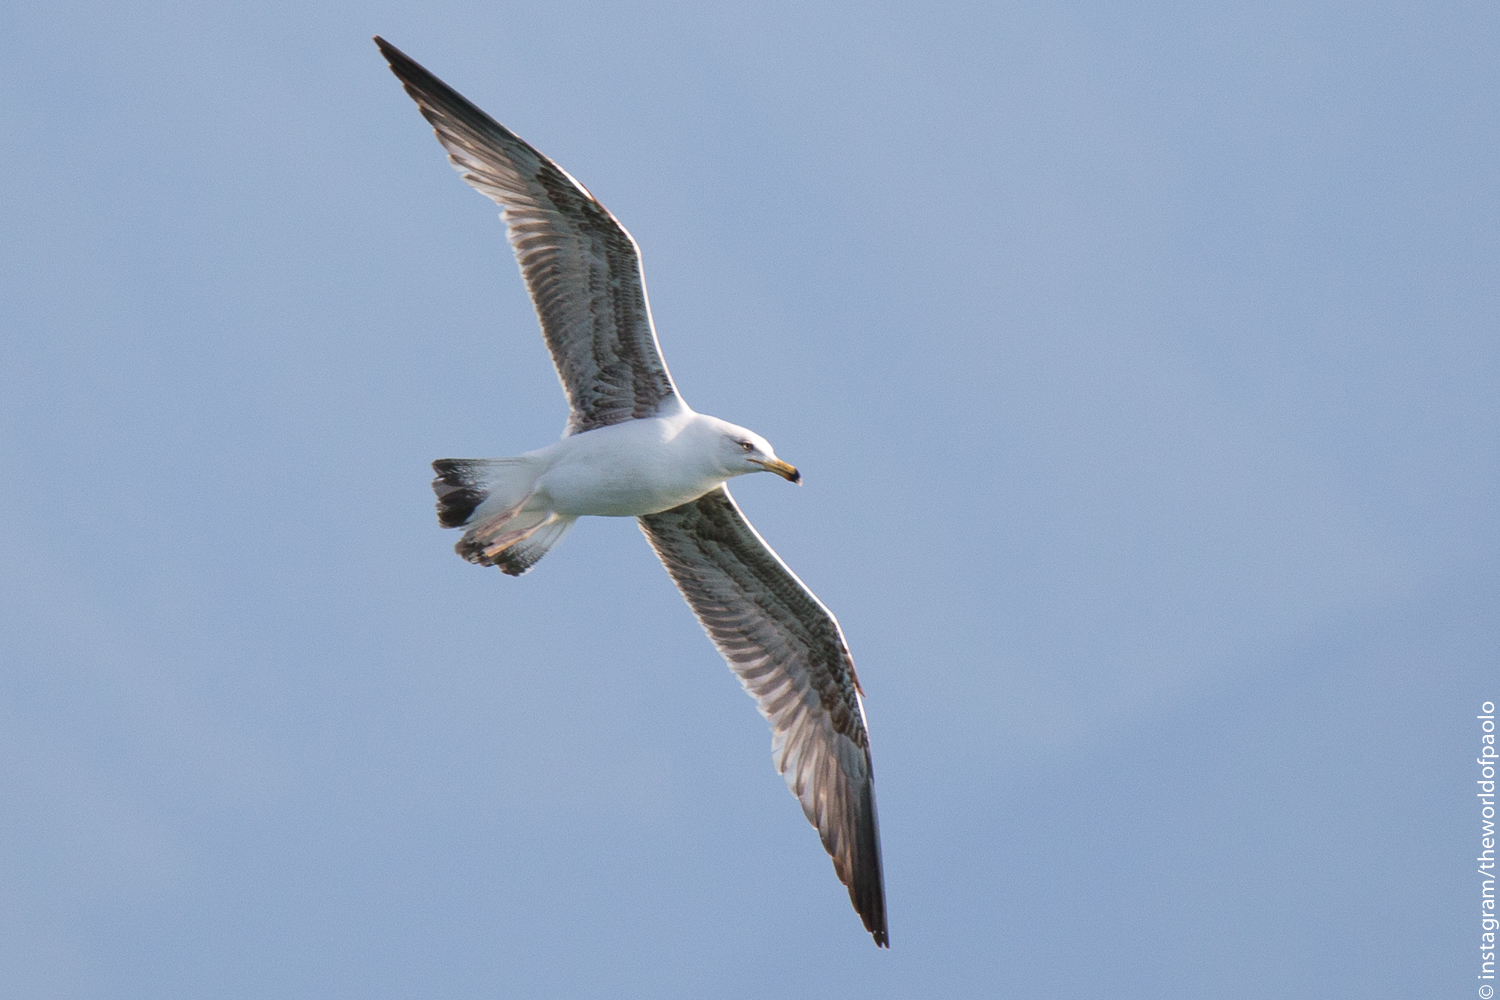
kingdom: Animalia
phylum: Chordata
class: Aves
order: Charadriiformes
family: Laridae
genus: Larus
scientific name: Larus michahellis
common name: Yellow-legged gull
